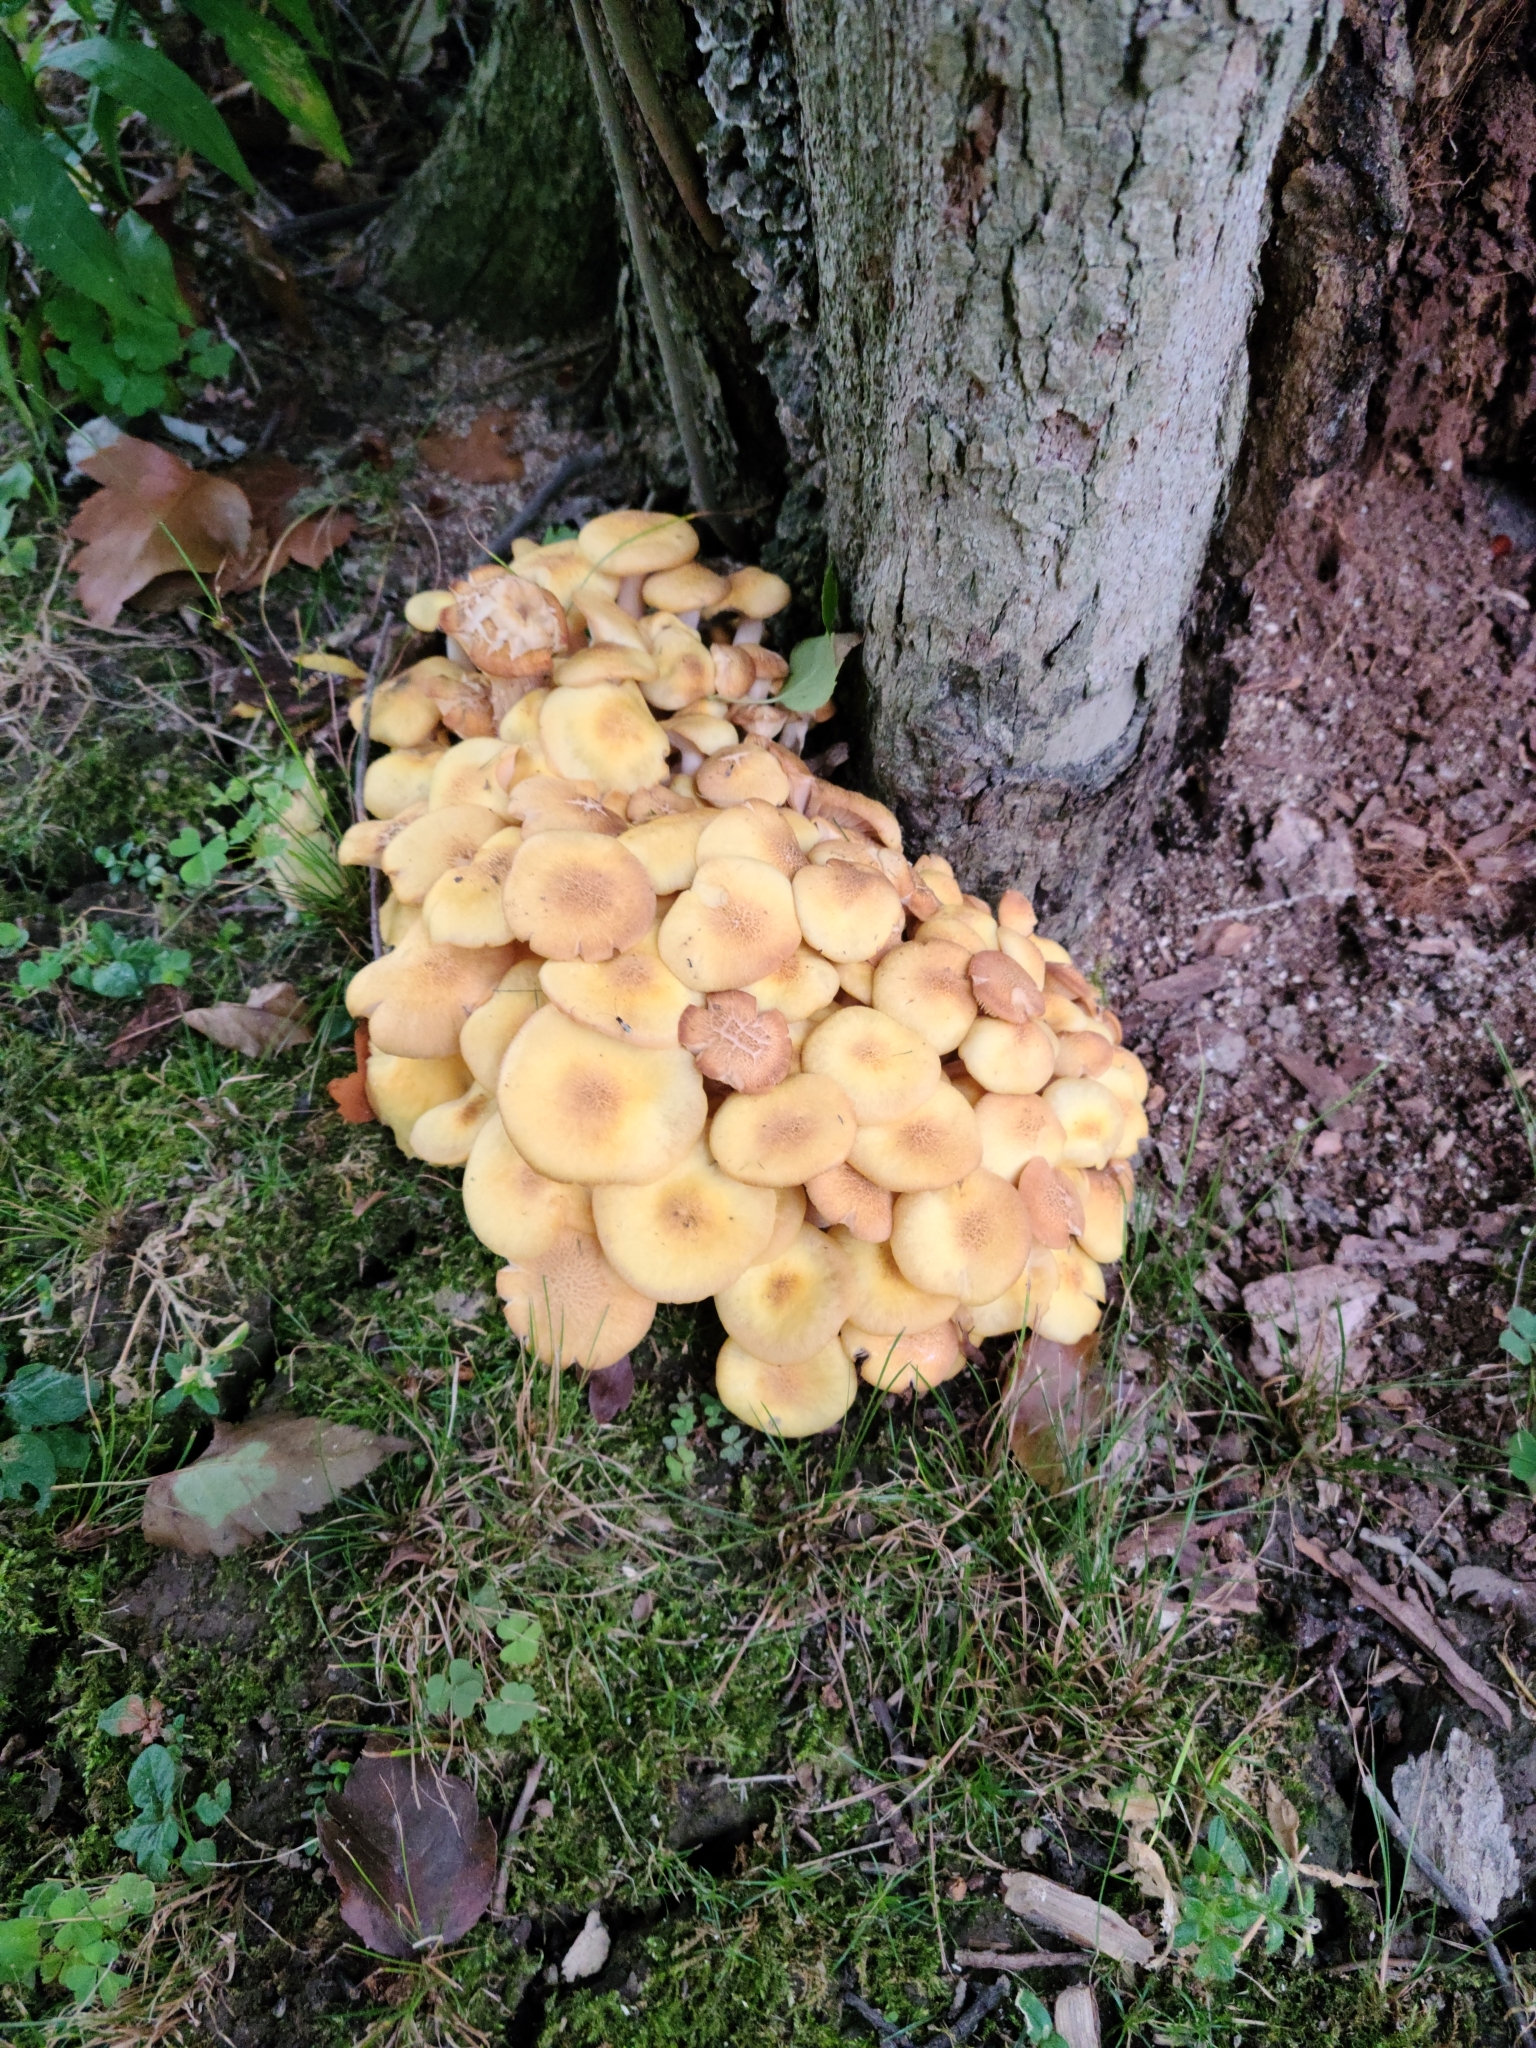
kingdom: Fungi
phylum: Basidiomycota
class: Agaricomycetes
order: Agaricales
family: Physalacriaceae
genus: Desarmillaria
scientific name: Desarmillaria caespitosa
